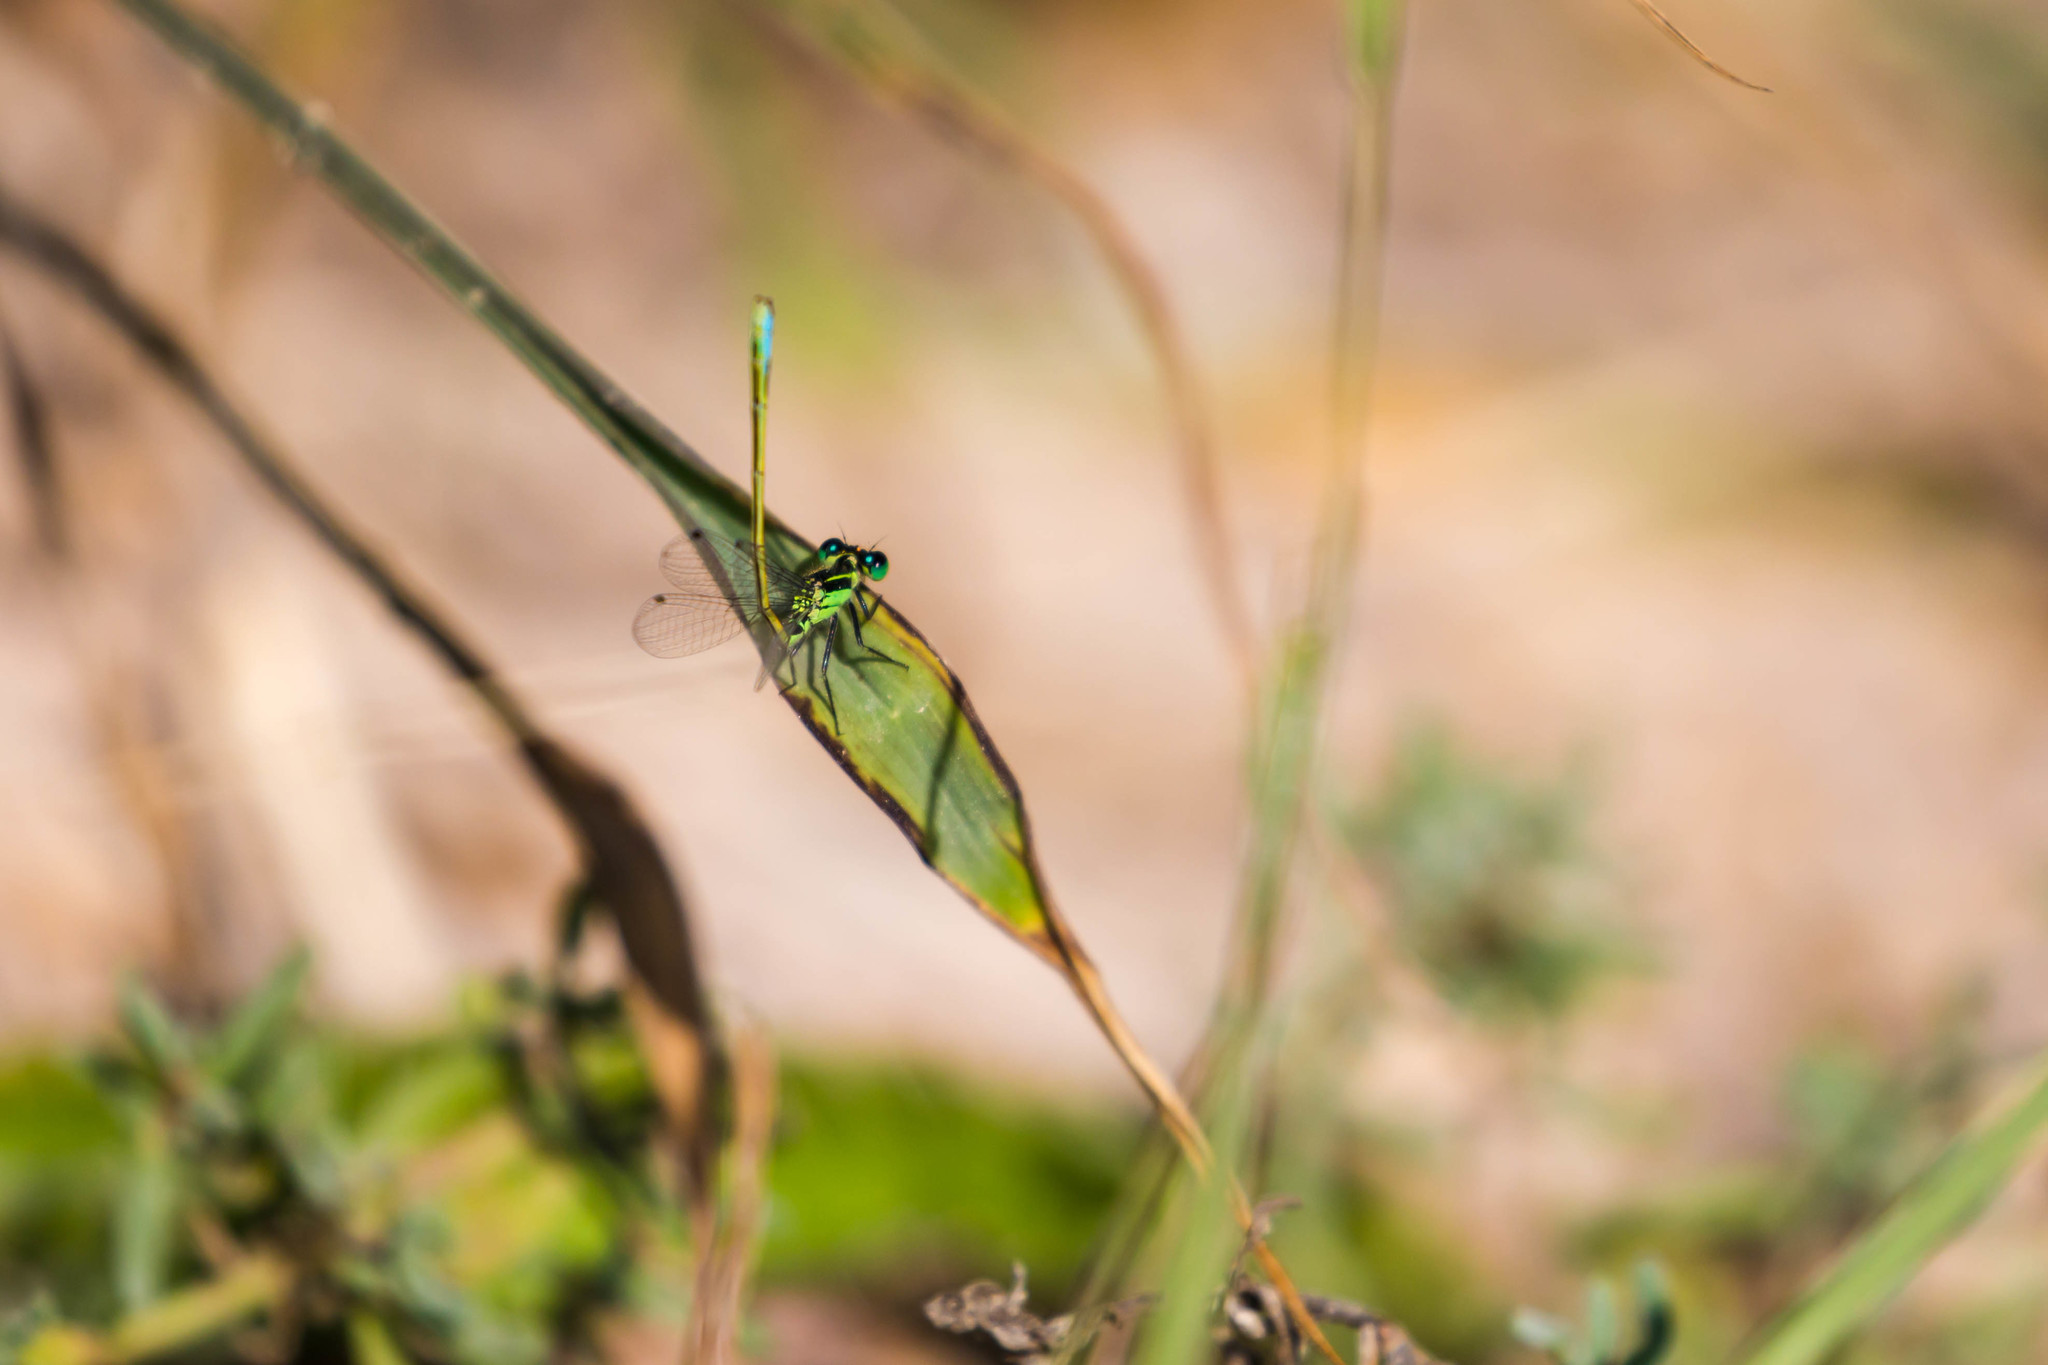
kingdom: Animalia
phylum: Arthropoda
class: Insecta
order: Odonata
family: Coenagrionidae
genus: Ischnura
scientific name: Ischnura ramburii
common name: Rambur's forktail
